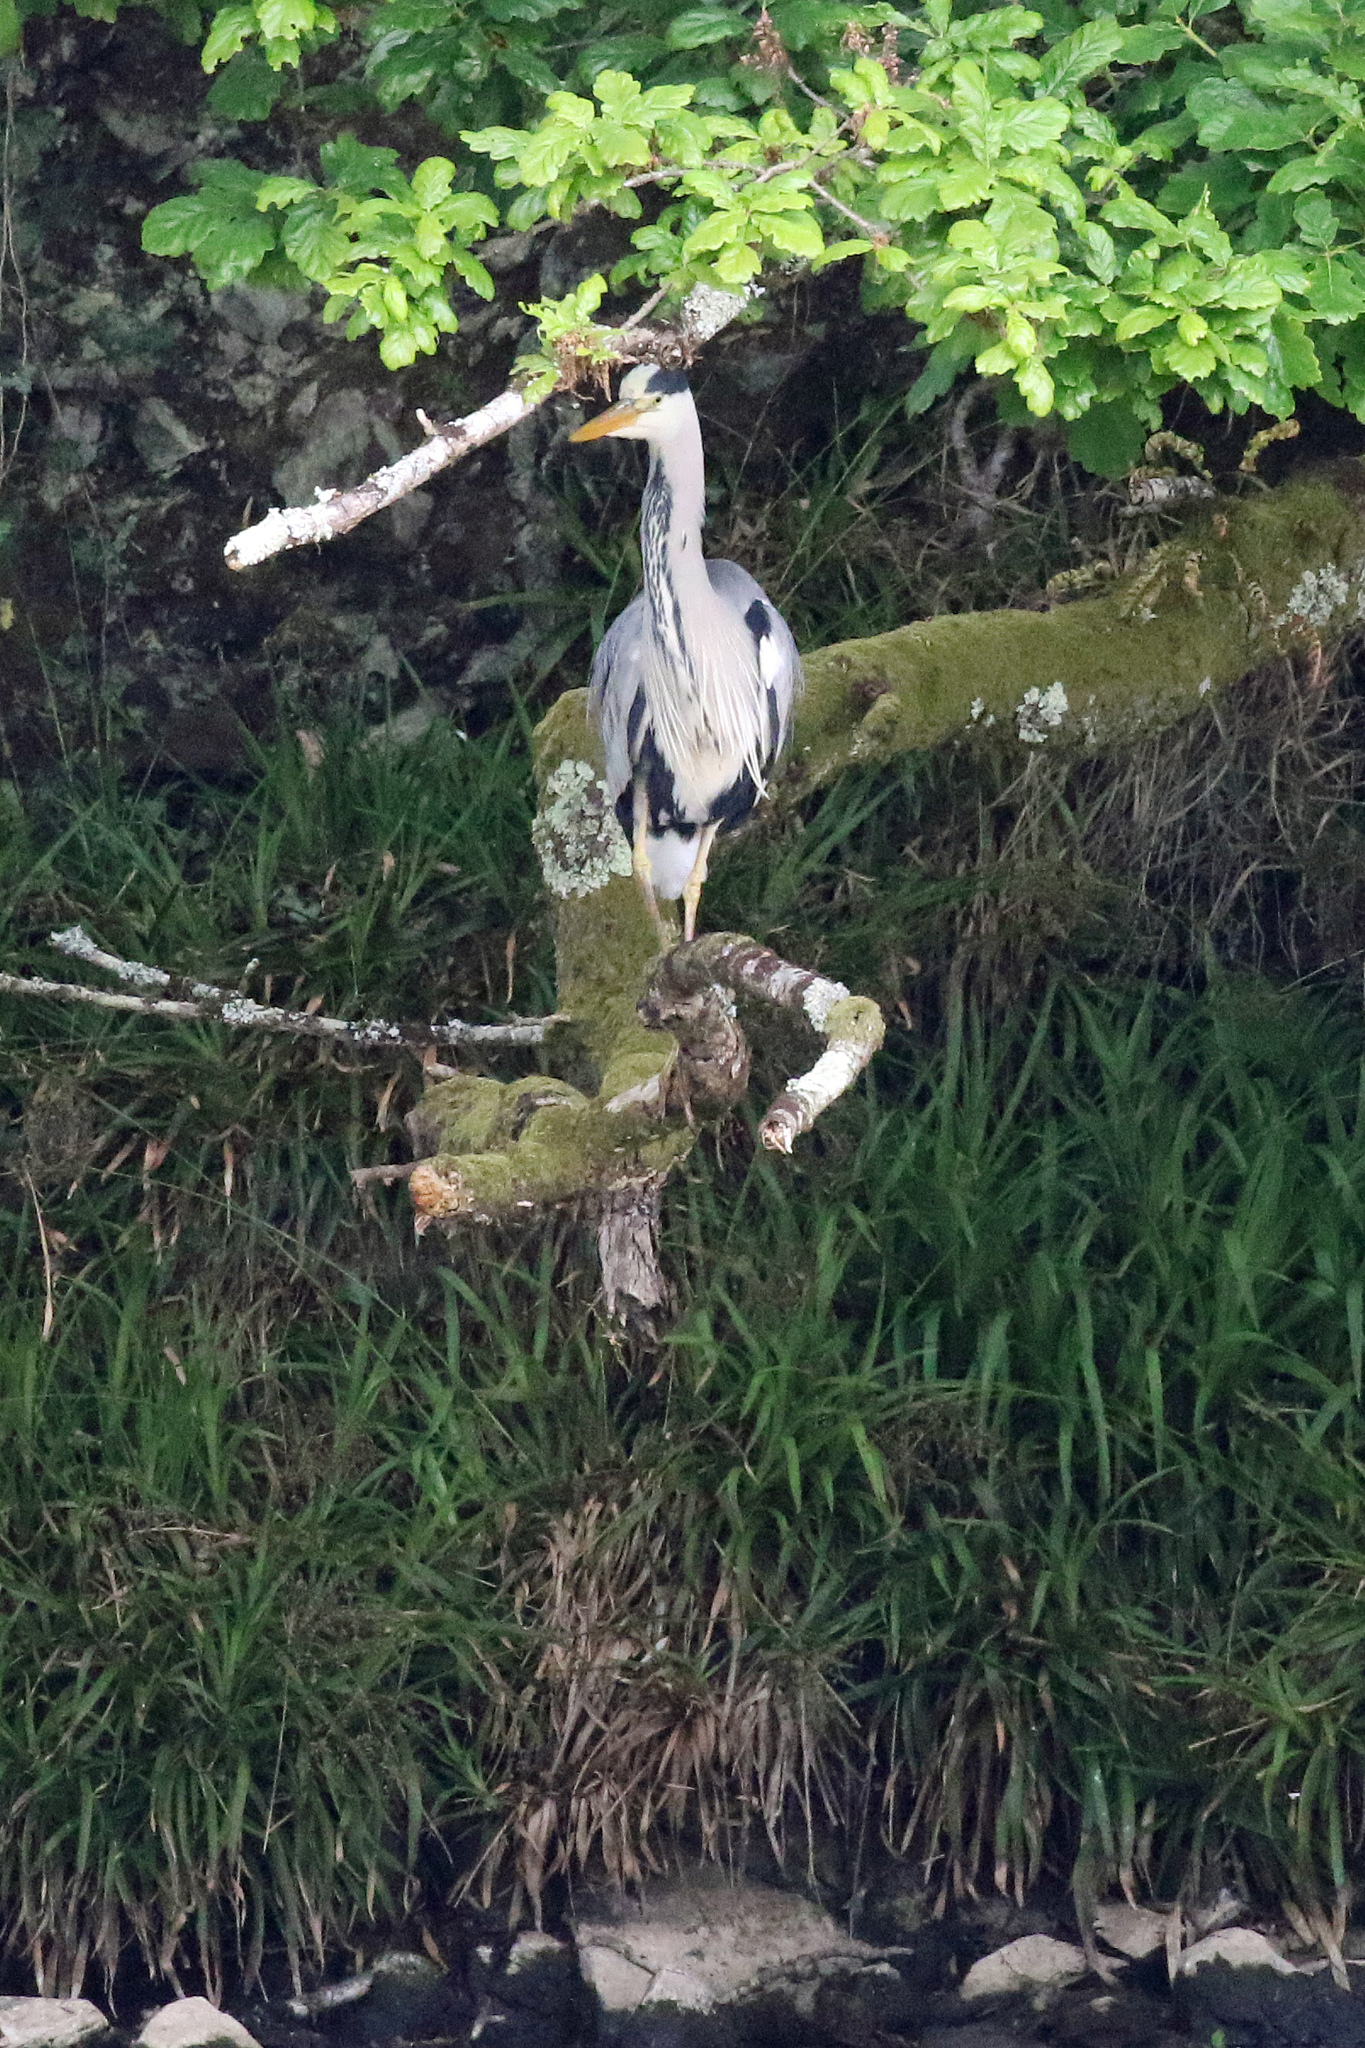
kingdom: Animalia
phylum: Chordata
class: Aves
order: Pelecaniformes
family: Ardeidae
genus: Ardea
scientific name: Ardea cinerea
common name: Grey heron
